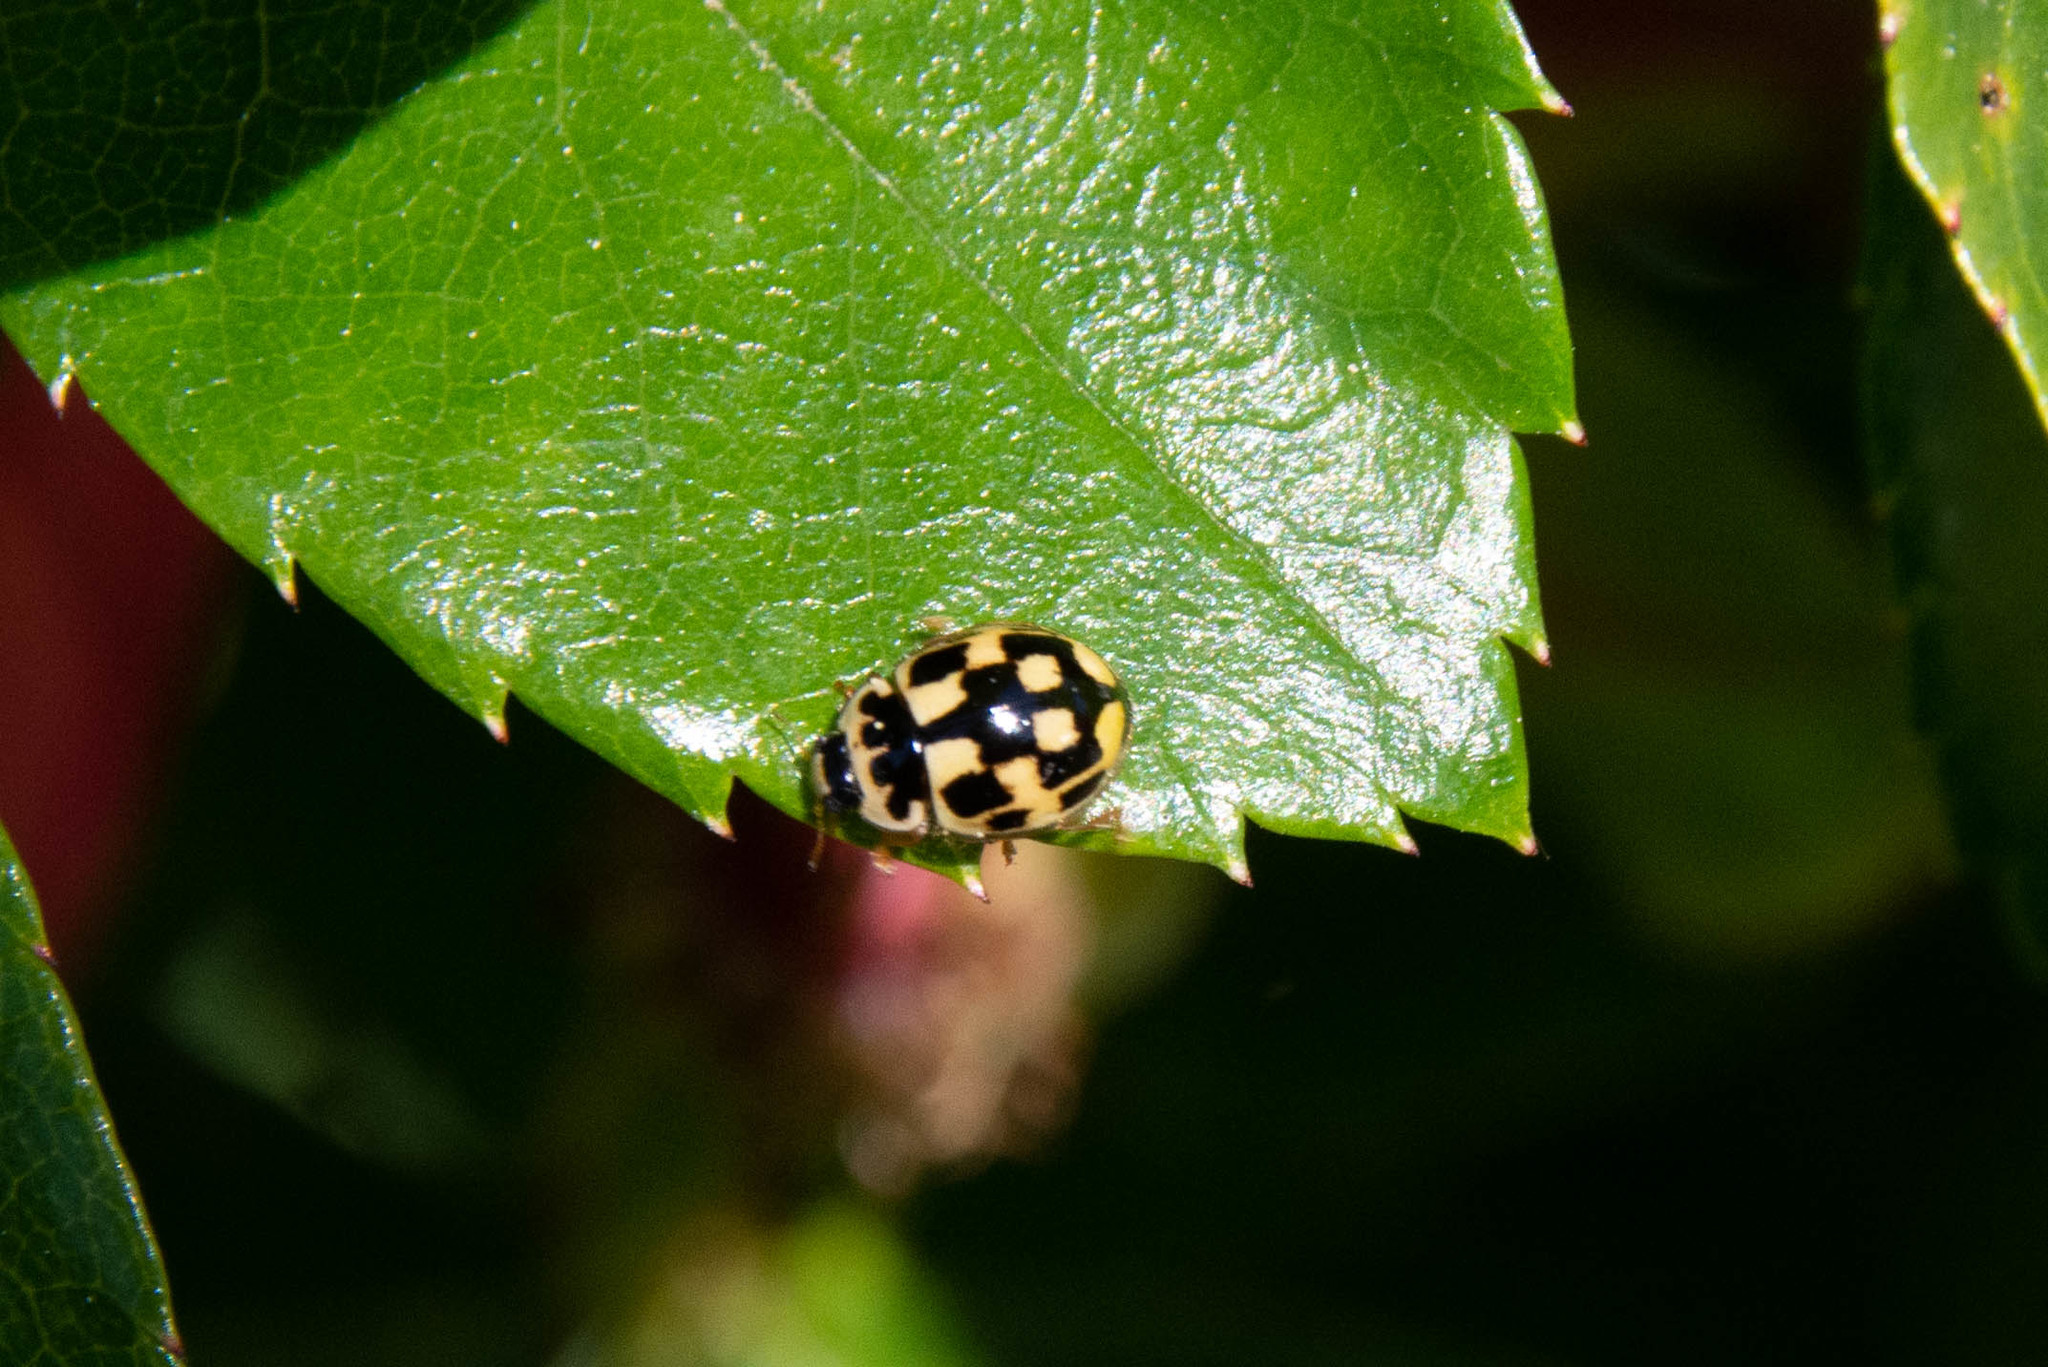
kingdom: Animalia
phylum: Arthropoda
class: Insecta
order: Coleoptera
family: Coccinellidae
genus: Propylaea
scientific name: Propylaea quatuordecimpunctata
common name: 14-spotted ladybird beetle
